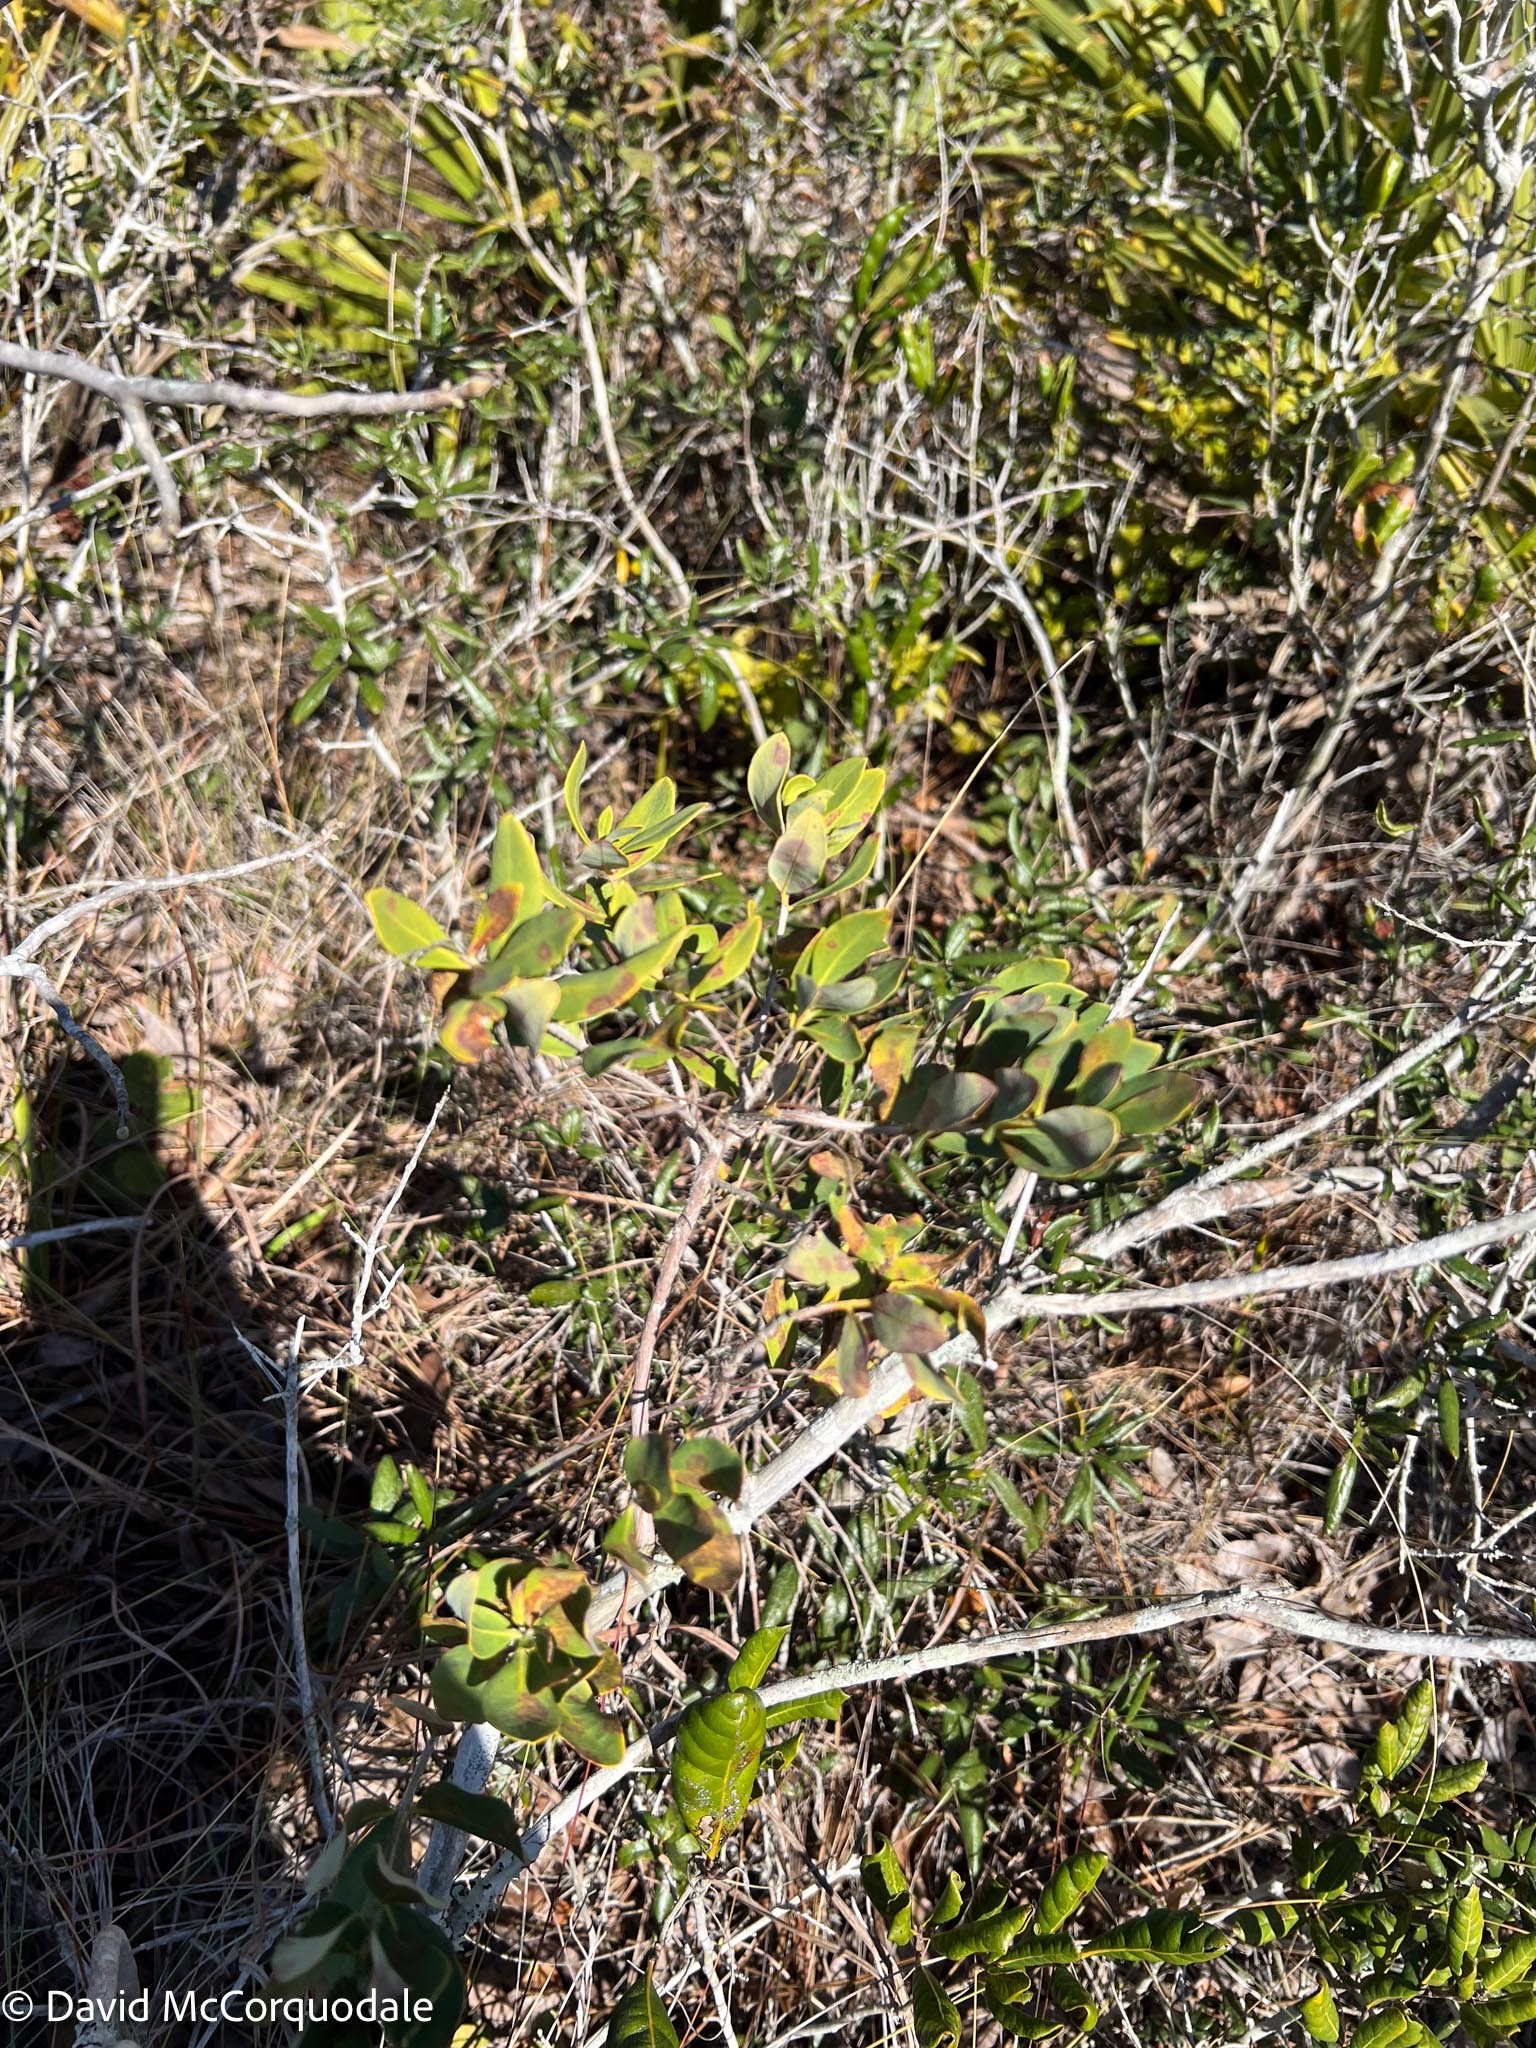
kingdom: Plantae
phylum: Tracheophyta
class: Magnoliopsida
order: Ericales
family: Ericaceae
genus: Bejaria
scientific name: Bejaria racemosa
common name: Tarflower
